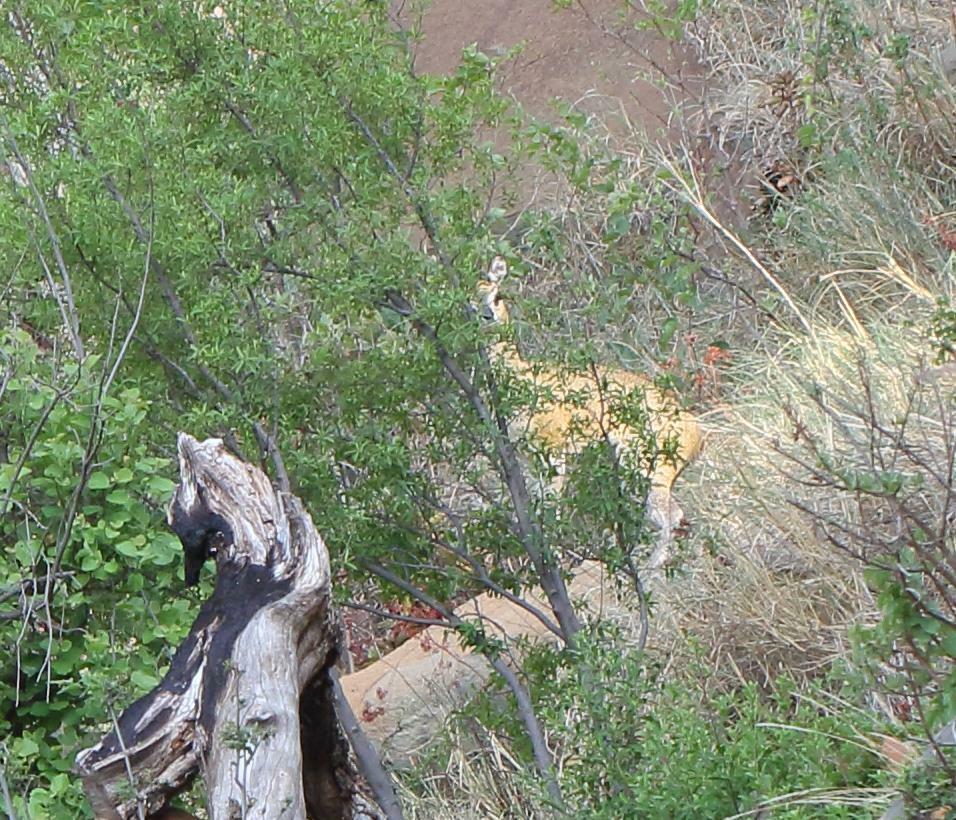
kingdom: Animalia
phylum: Chordata
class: Mammalia
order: Artiodactyla
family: Bovidae
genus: Oreotragus
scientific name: Oreotragus oreotragus
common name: Klipspringer
